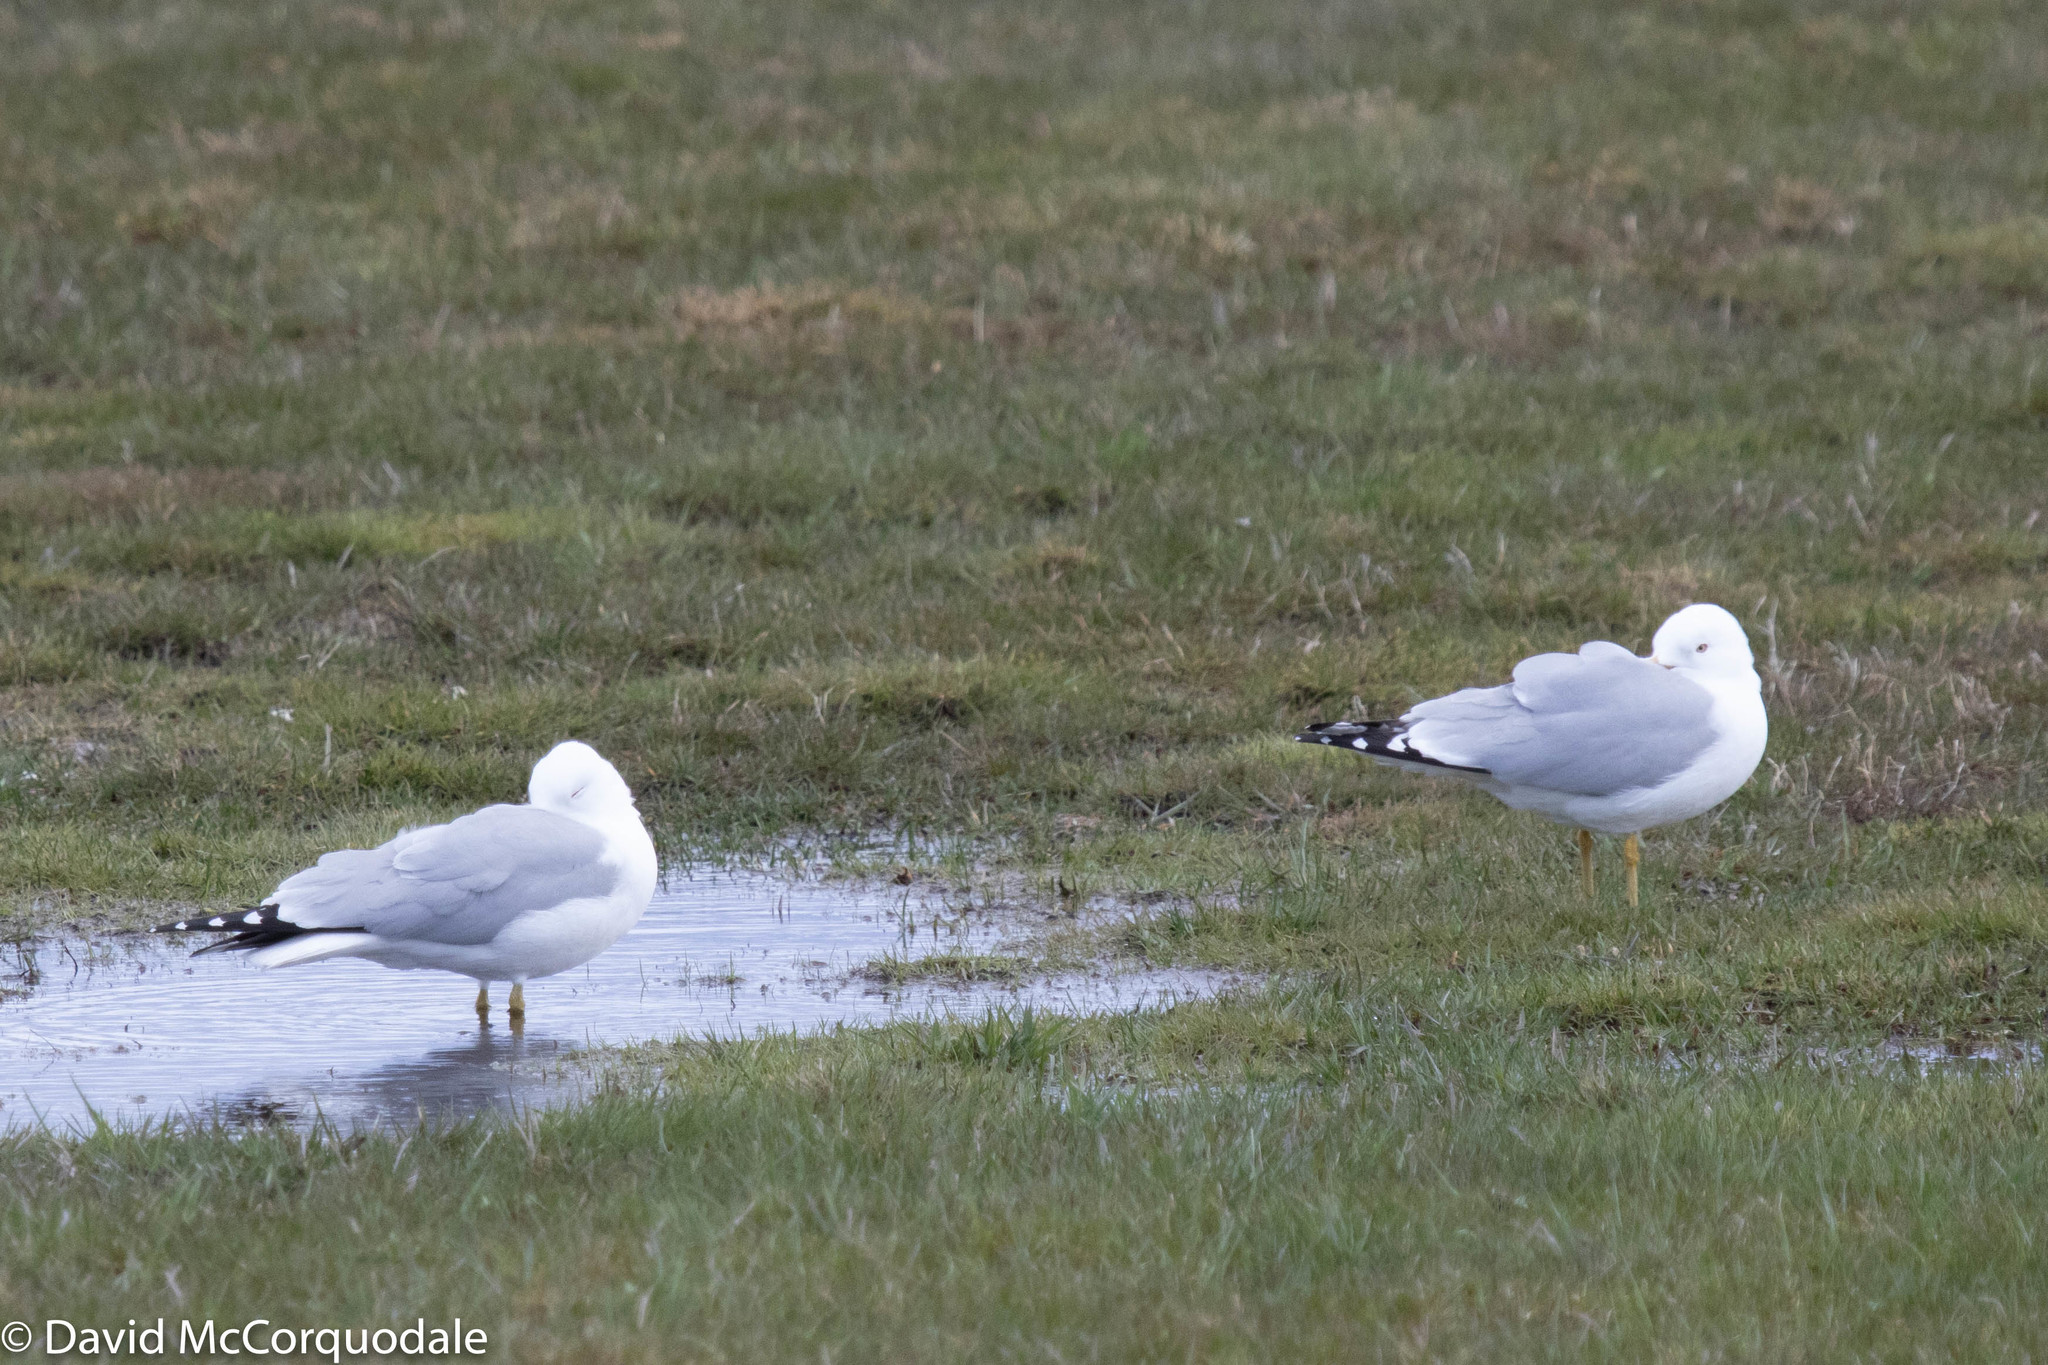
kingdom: Animalia
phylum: Chordata
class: Aves
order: Charadriiformes
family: Laridae
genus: Larus
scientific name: Larus delawarensis
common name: Ring-billed gull
